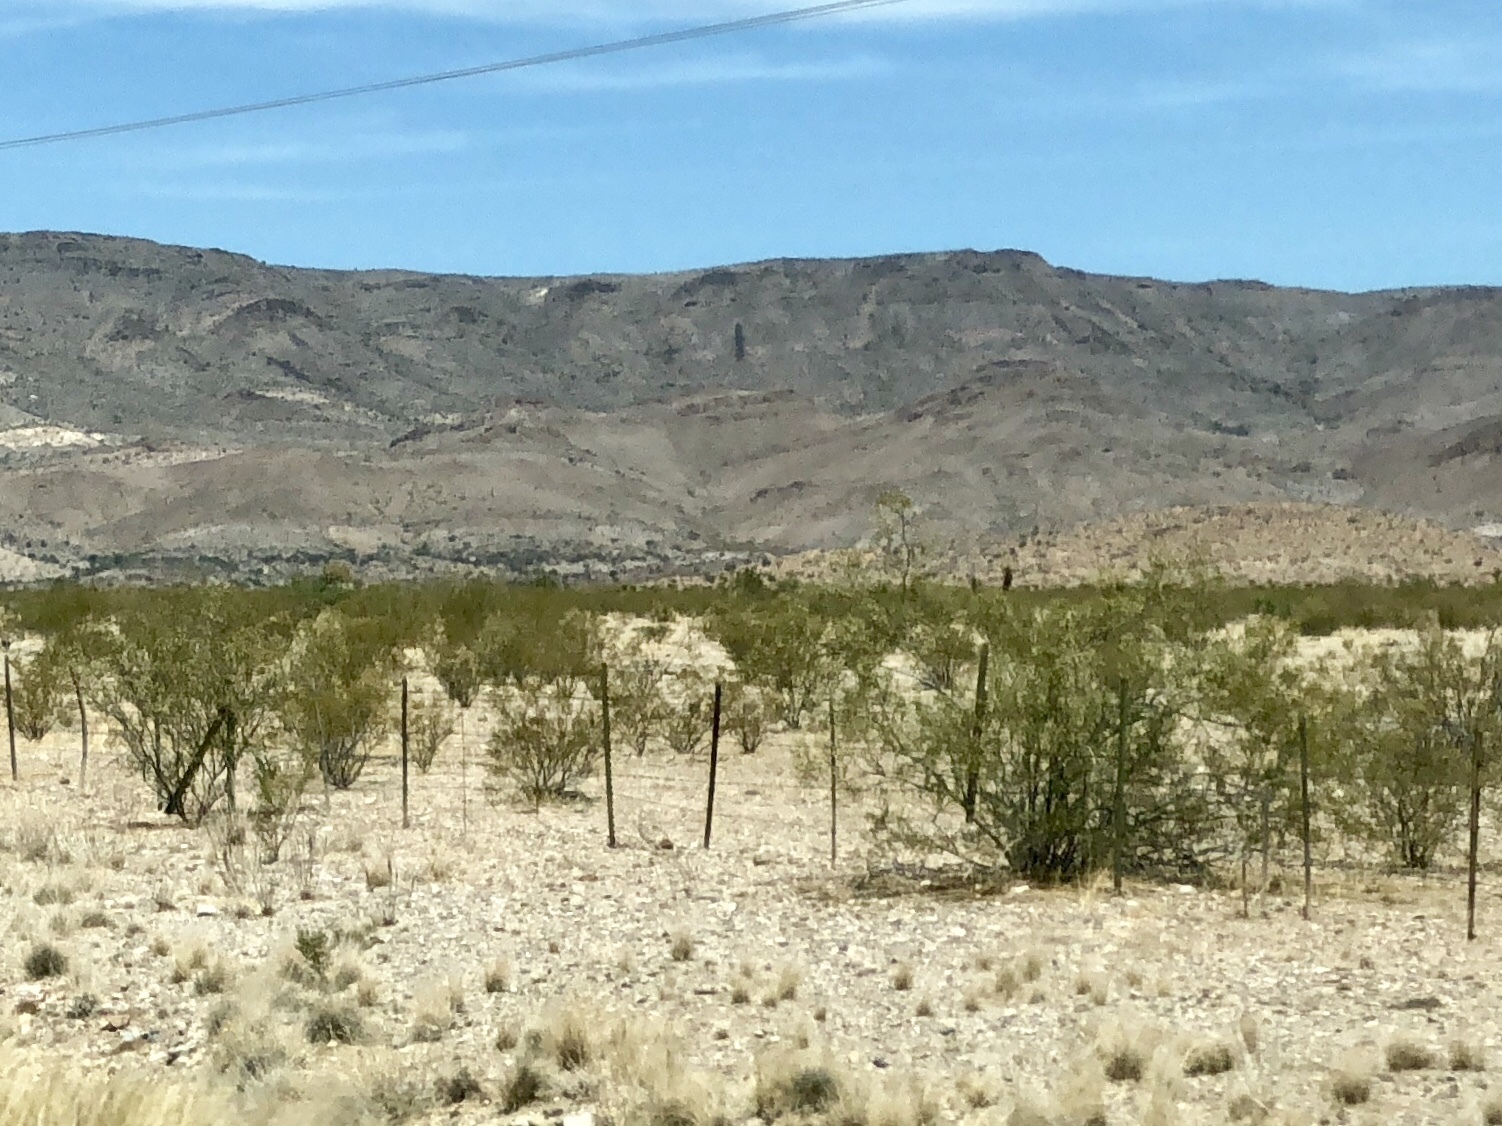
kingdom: Plantae
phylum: Tracheophyta
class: Magnoliopsida
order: Zygophyllales
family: Zygophyllaceae
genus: Larrea
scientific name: Larrea tridentata
